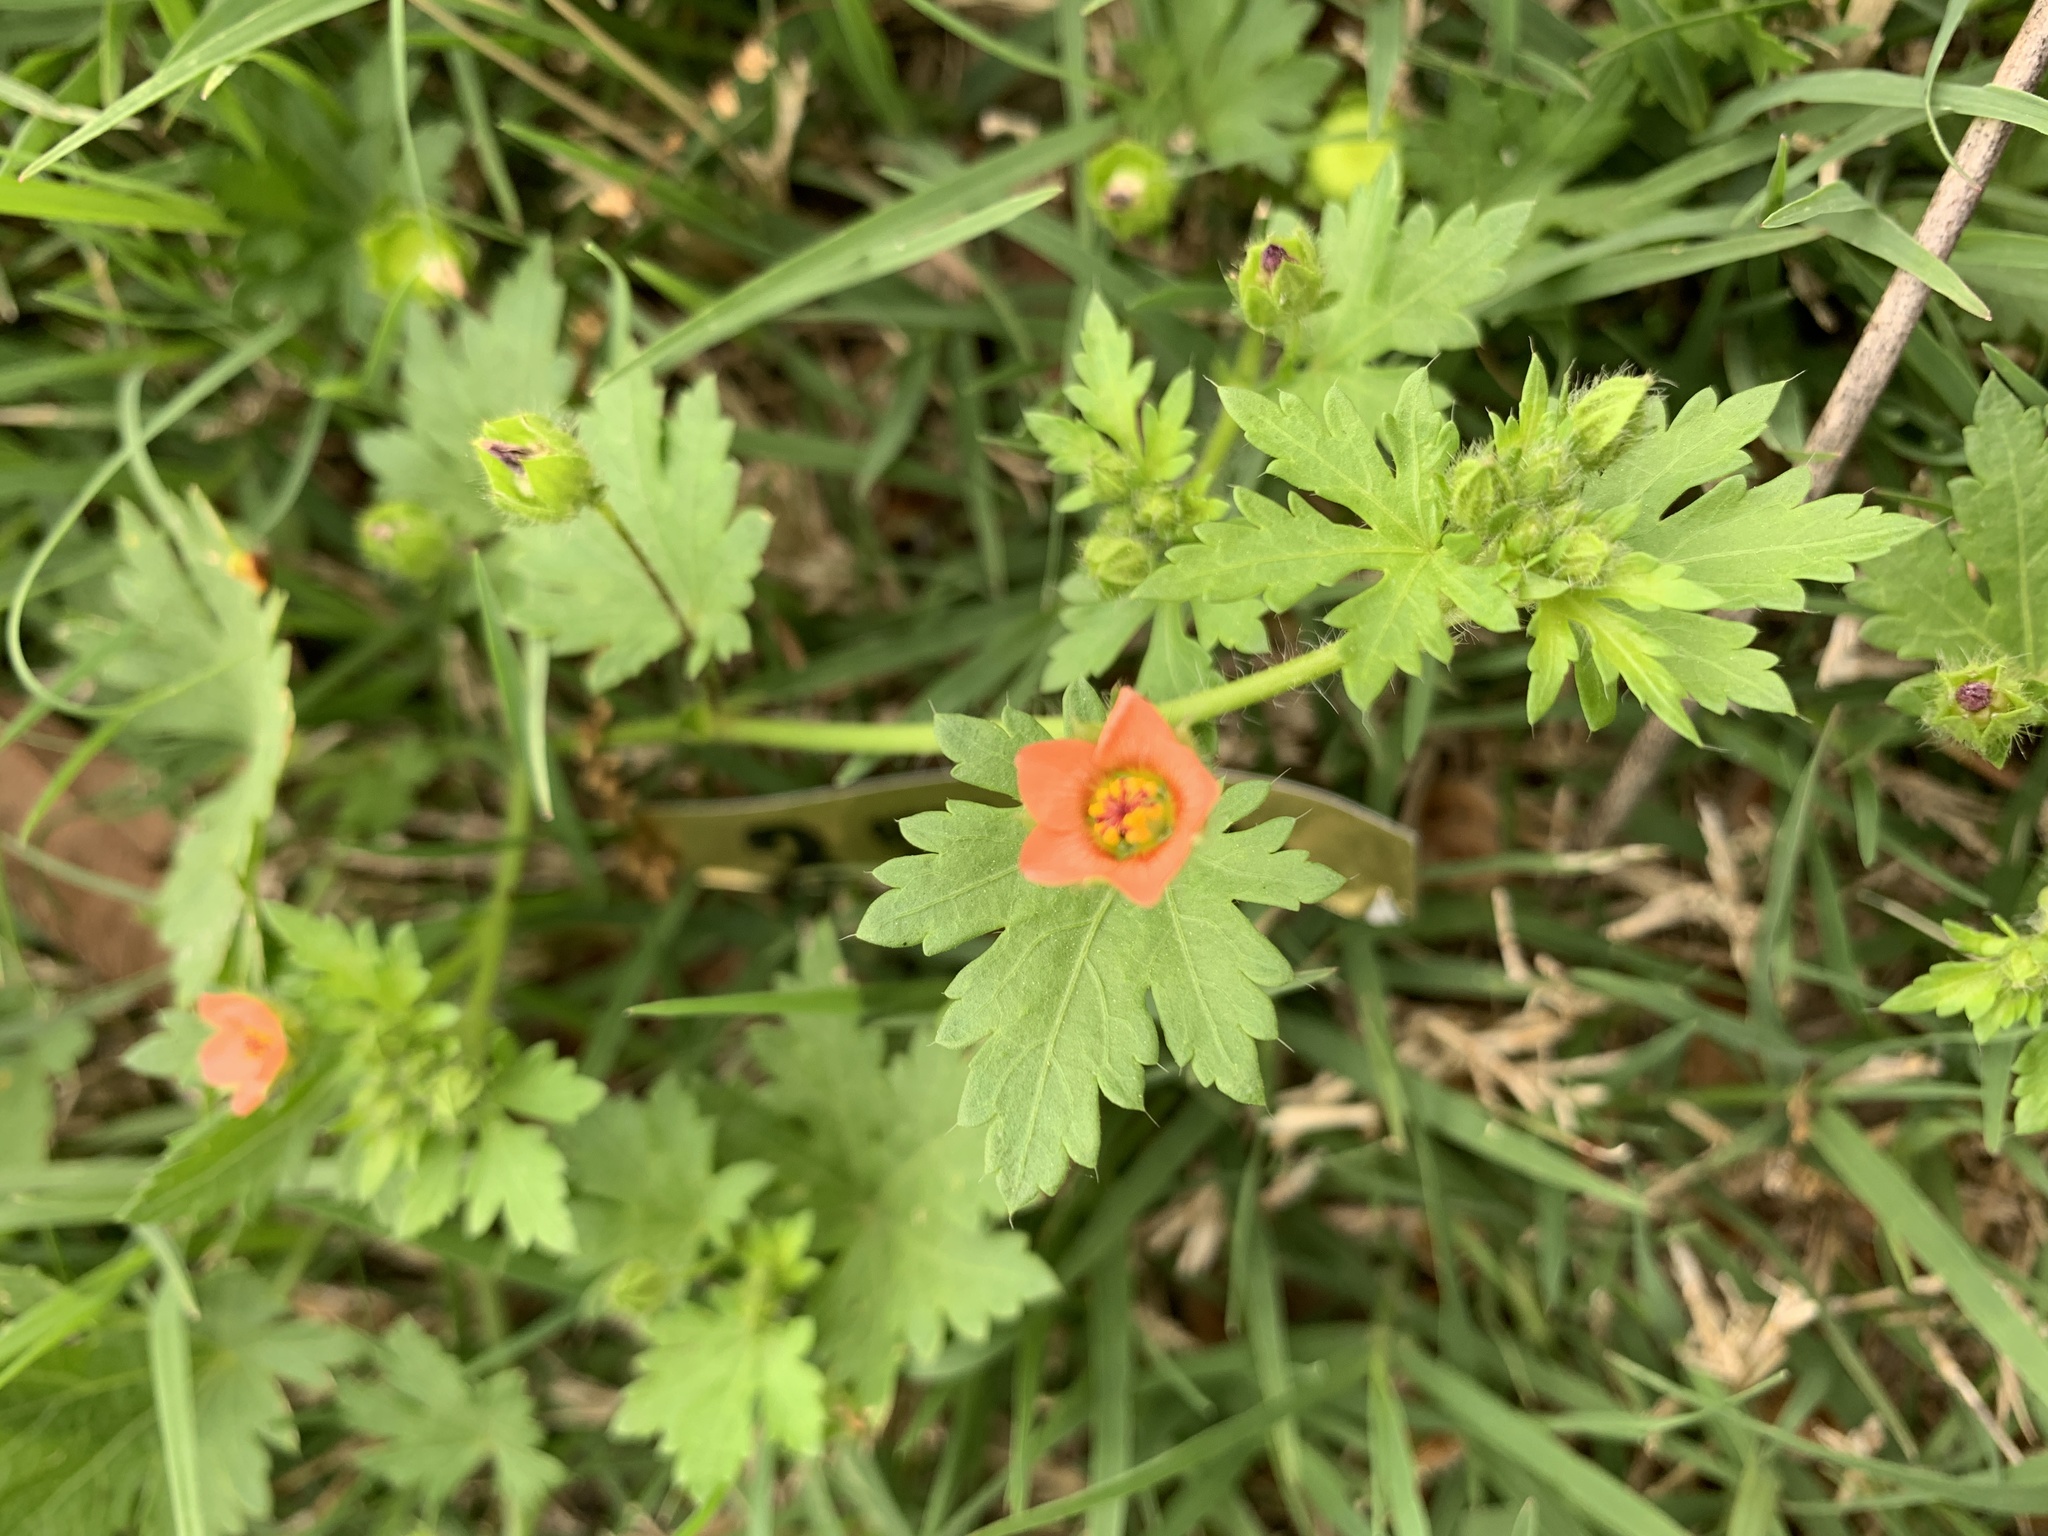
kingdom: Plantae
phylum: Tracheophyta
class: Magnoliopsida
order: Malvales
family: Malvaceae
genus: Modiola
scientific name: Modiola caroliniana
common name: Carolina bristlemallow
